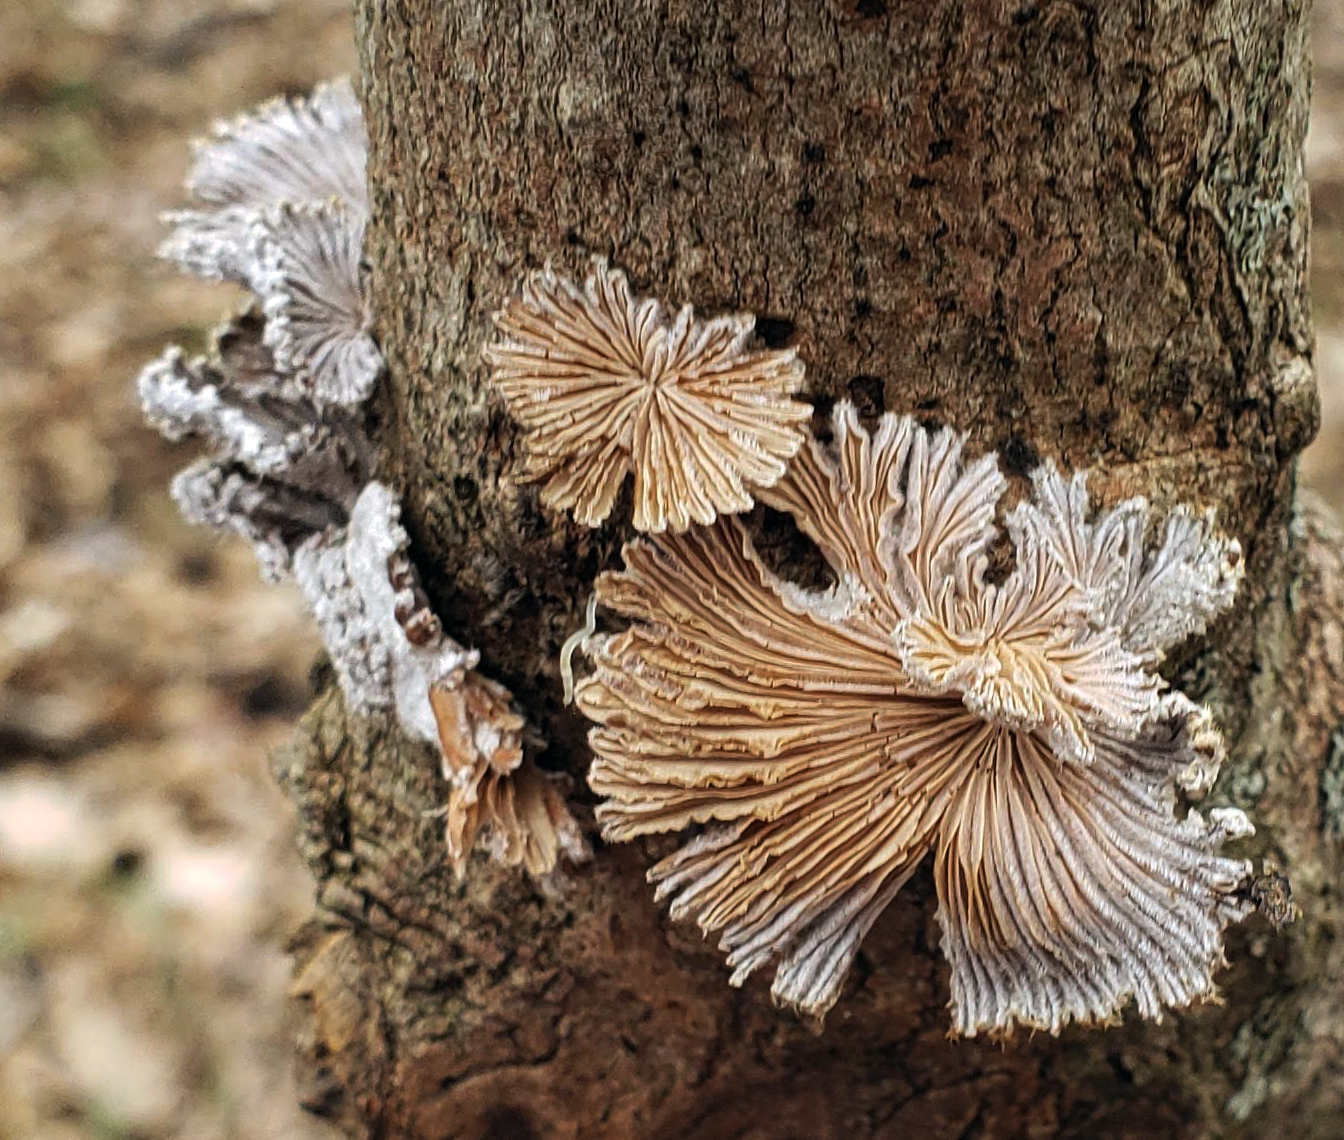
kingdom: Fungi
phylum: Basidiomycota
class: Agaricomycetes
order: Agaricales
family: Schizophyllaceae
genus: Schizophyllum
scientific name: Schizophyllum commune
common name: Common porecrust
